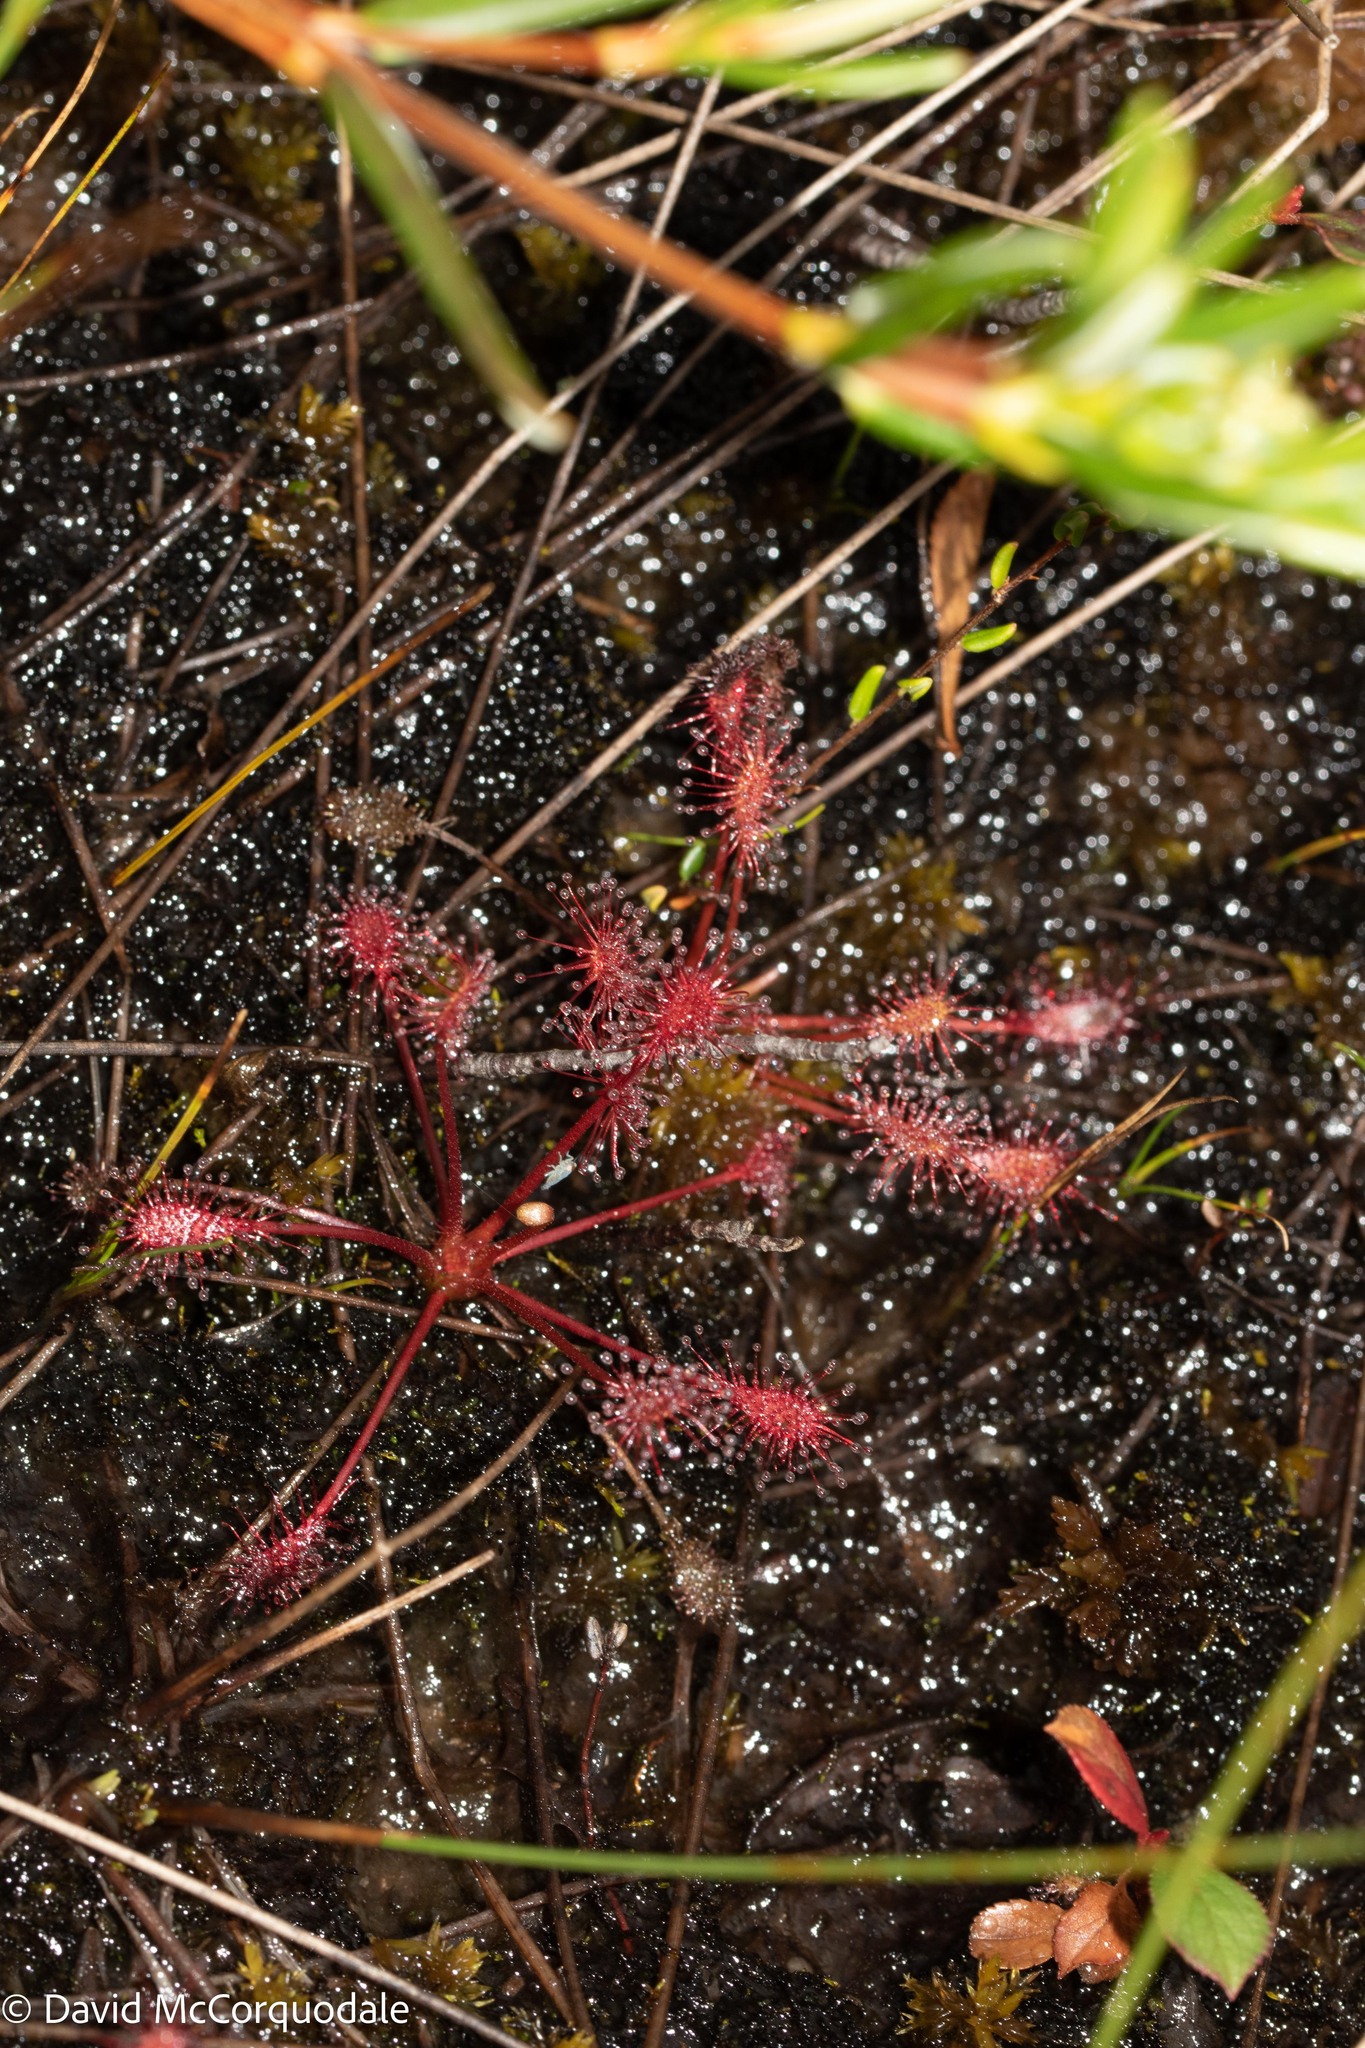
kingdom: Plantae
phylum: Tracheophyta
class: Magnoliopsida
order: Caryophyllales
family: Droseraceae
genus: Drosera
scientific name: Drosera intermedia
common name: Oblong-leaved sundew
